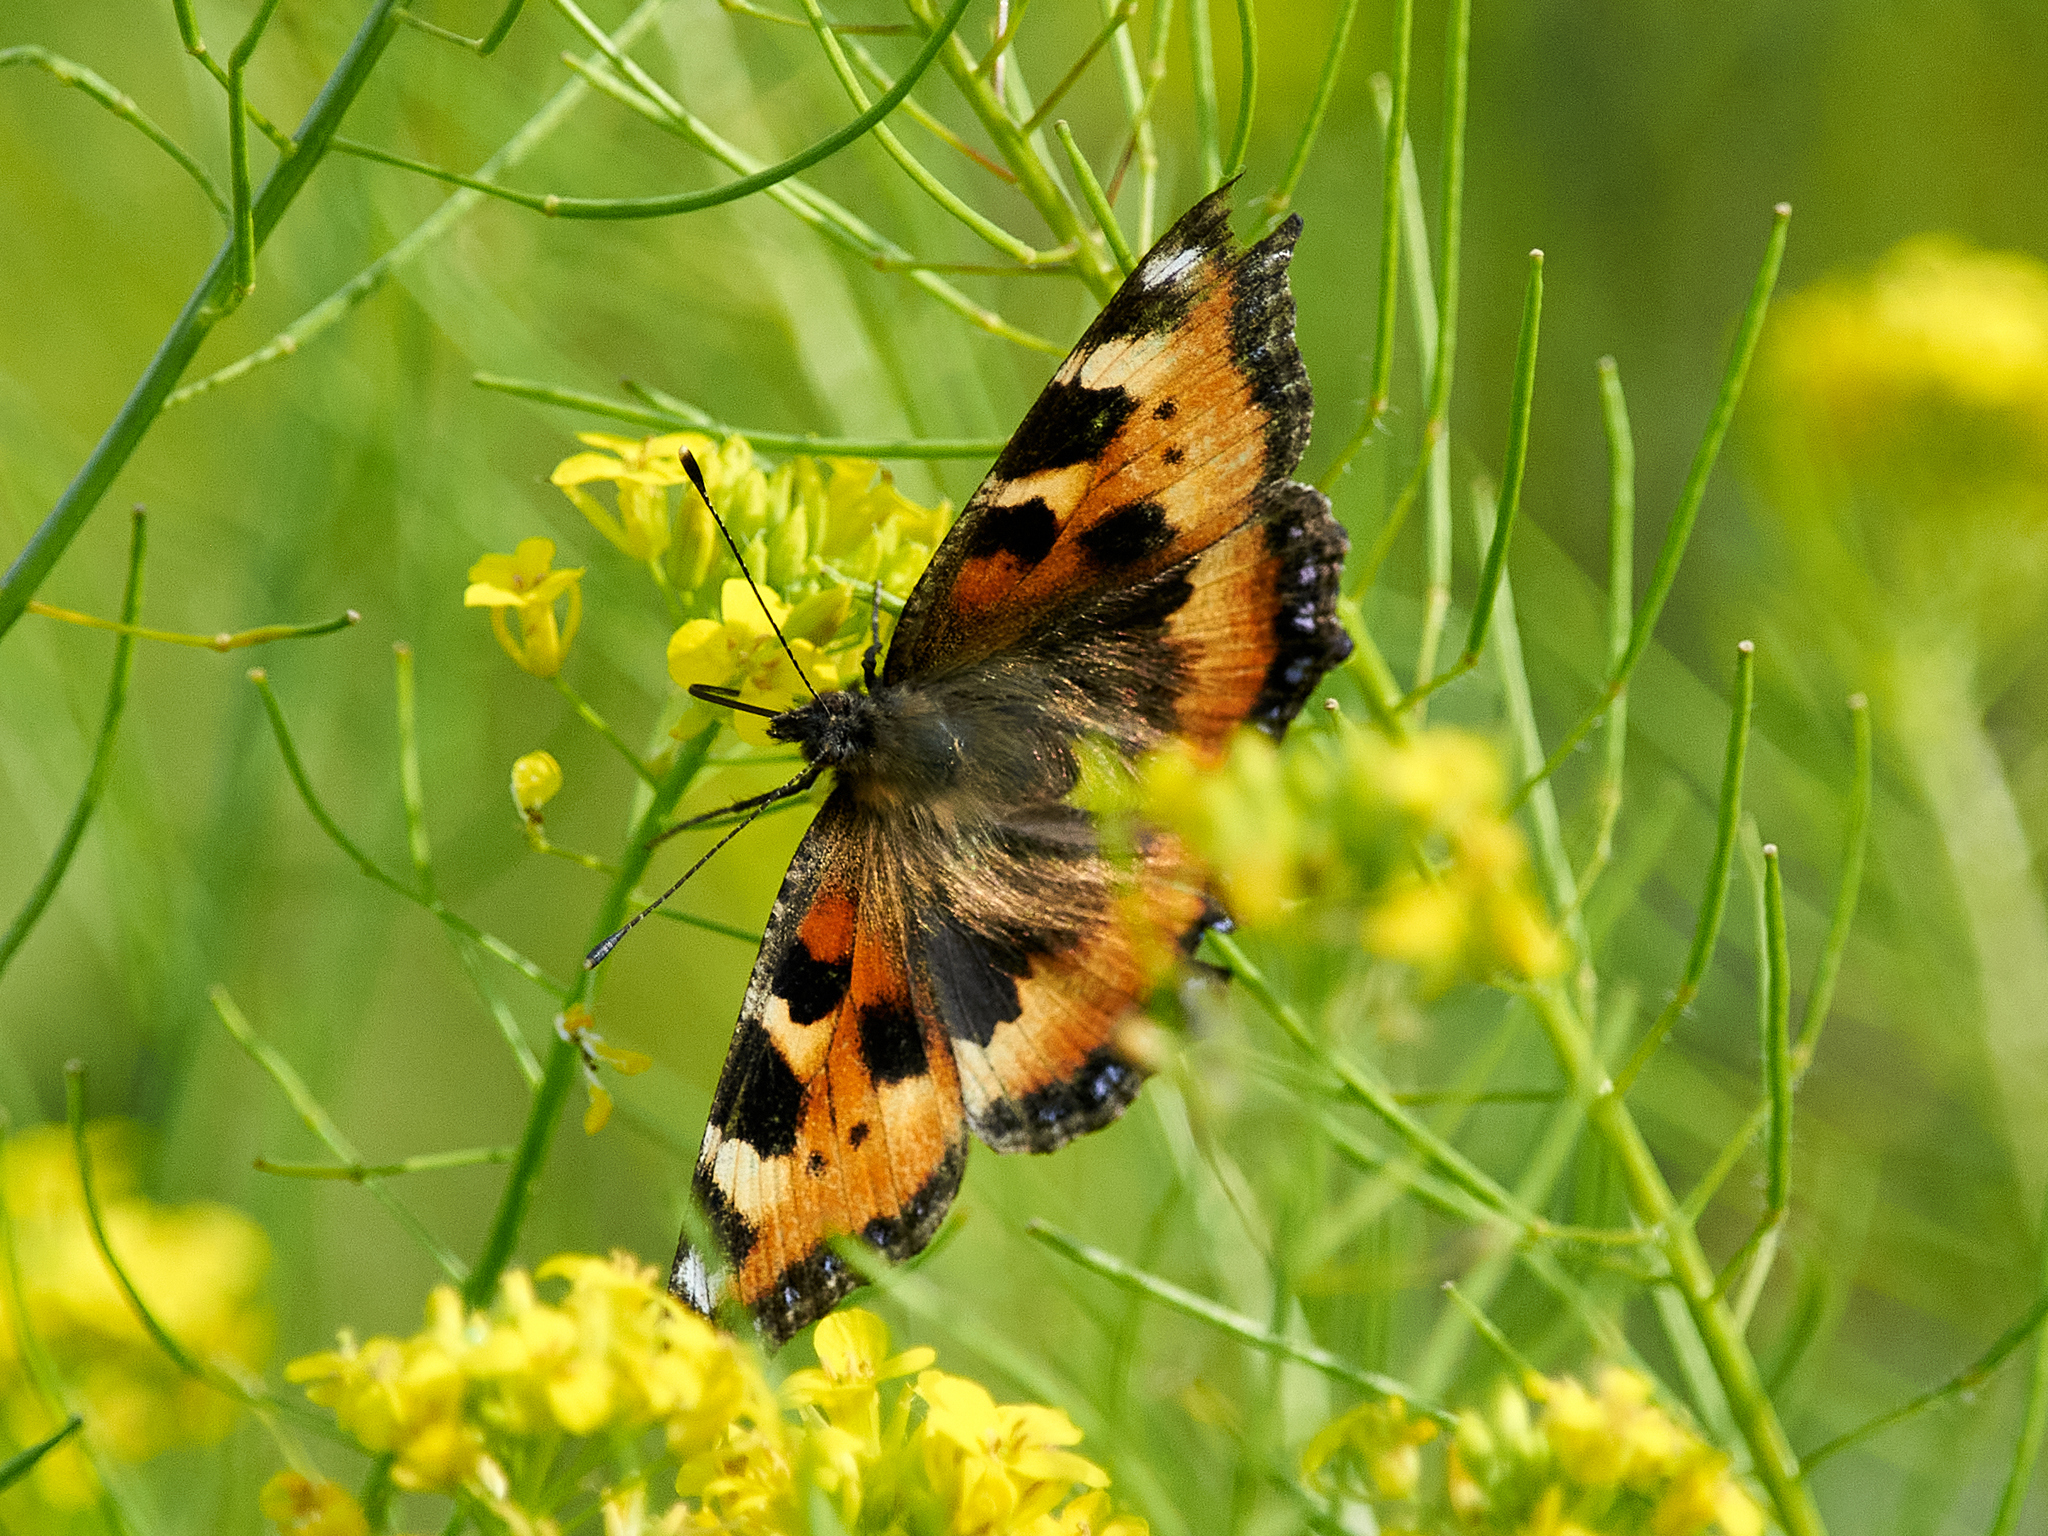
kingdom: Animalia
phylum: Arthropoda
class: Insecta
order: Lepidoptera
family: Nymphalidae
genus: Aglais
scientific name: Aglais urticae
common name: Small tortoiseshell
